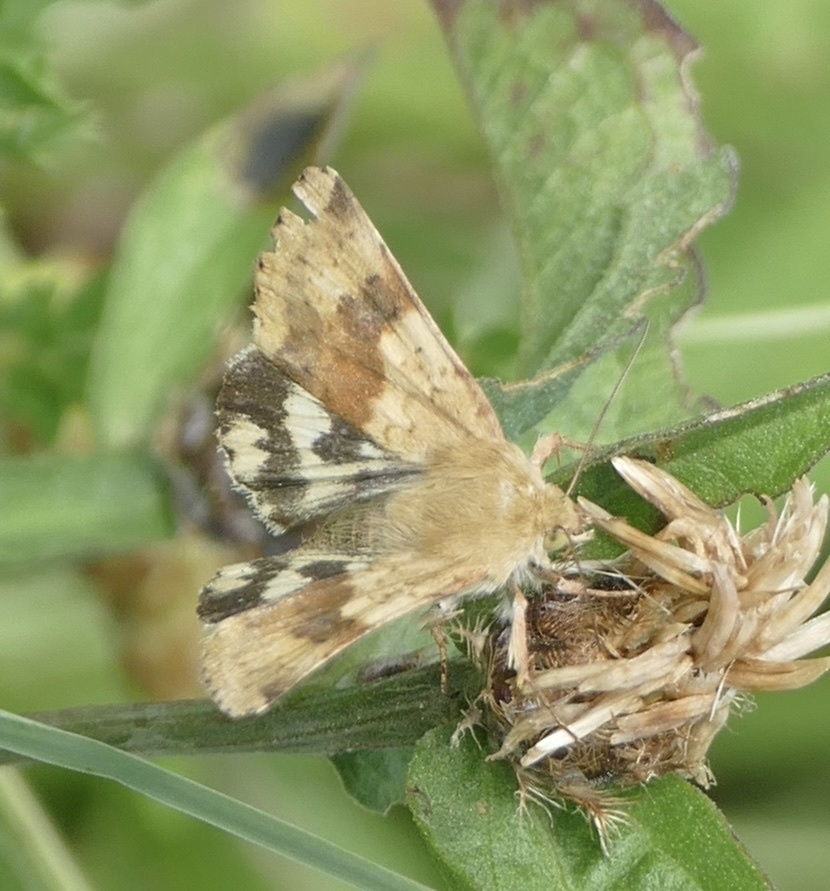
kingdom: Animalia
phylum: Arthropoda
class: Insecta
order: Lepidoptera
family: Noctuidae
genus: Heliothis
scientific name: Heliothis viriplaca
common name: Marbled clover
